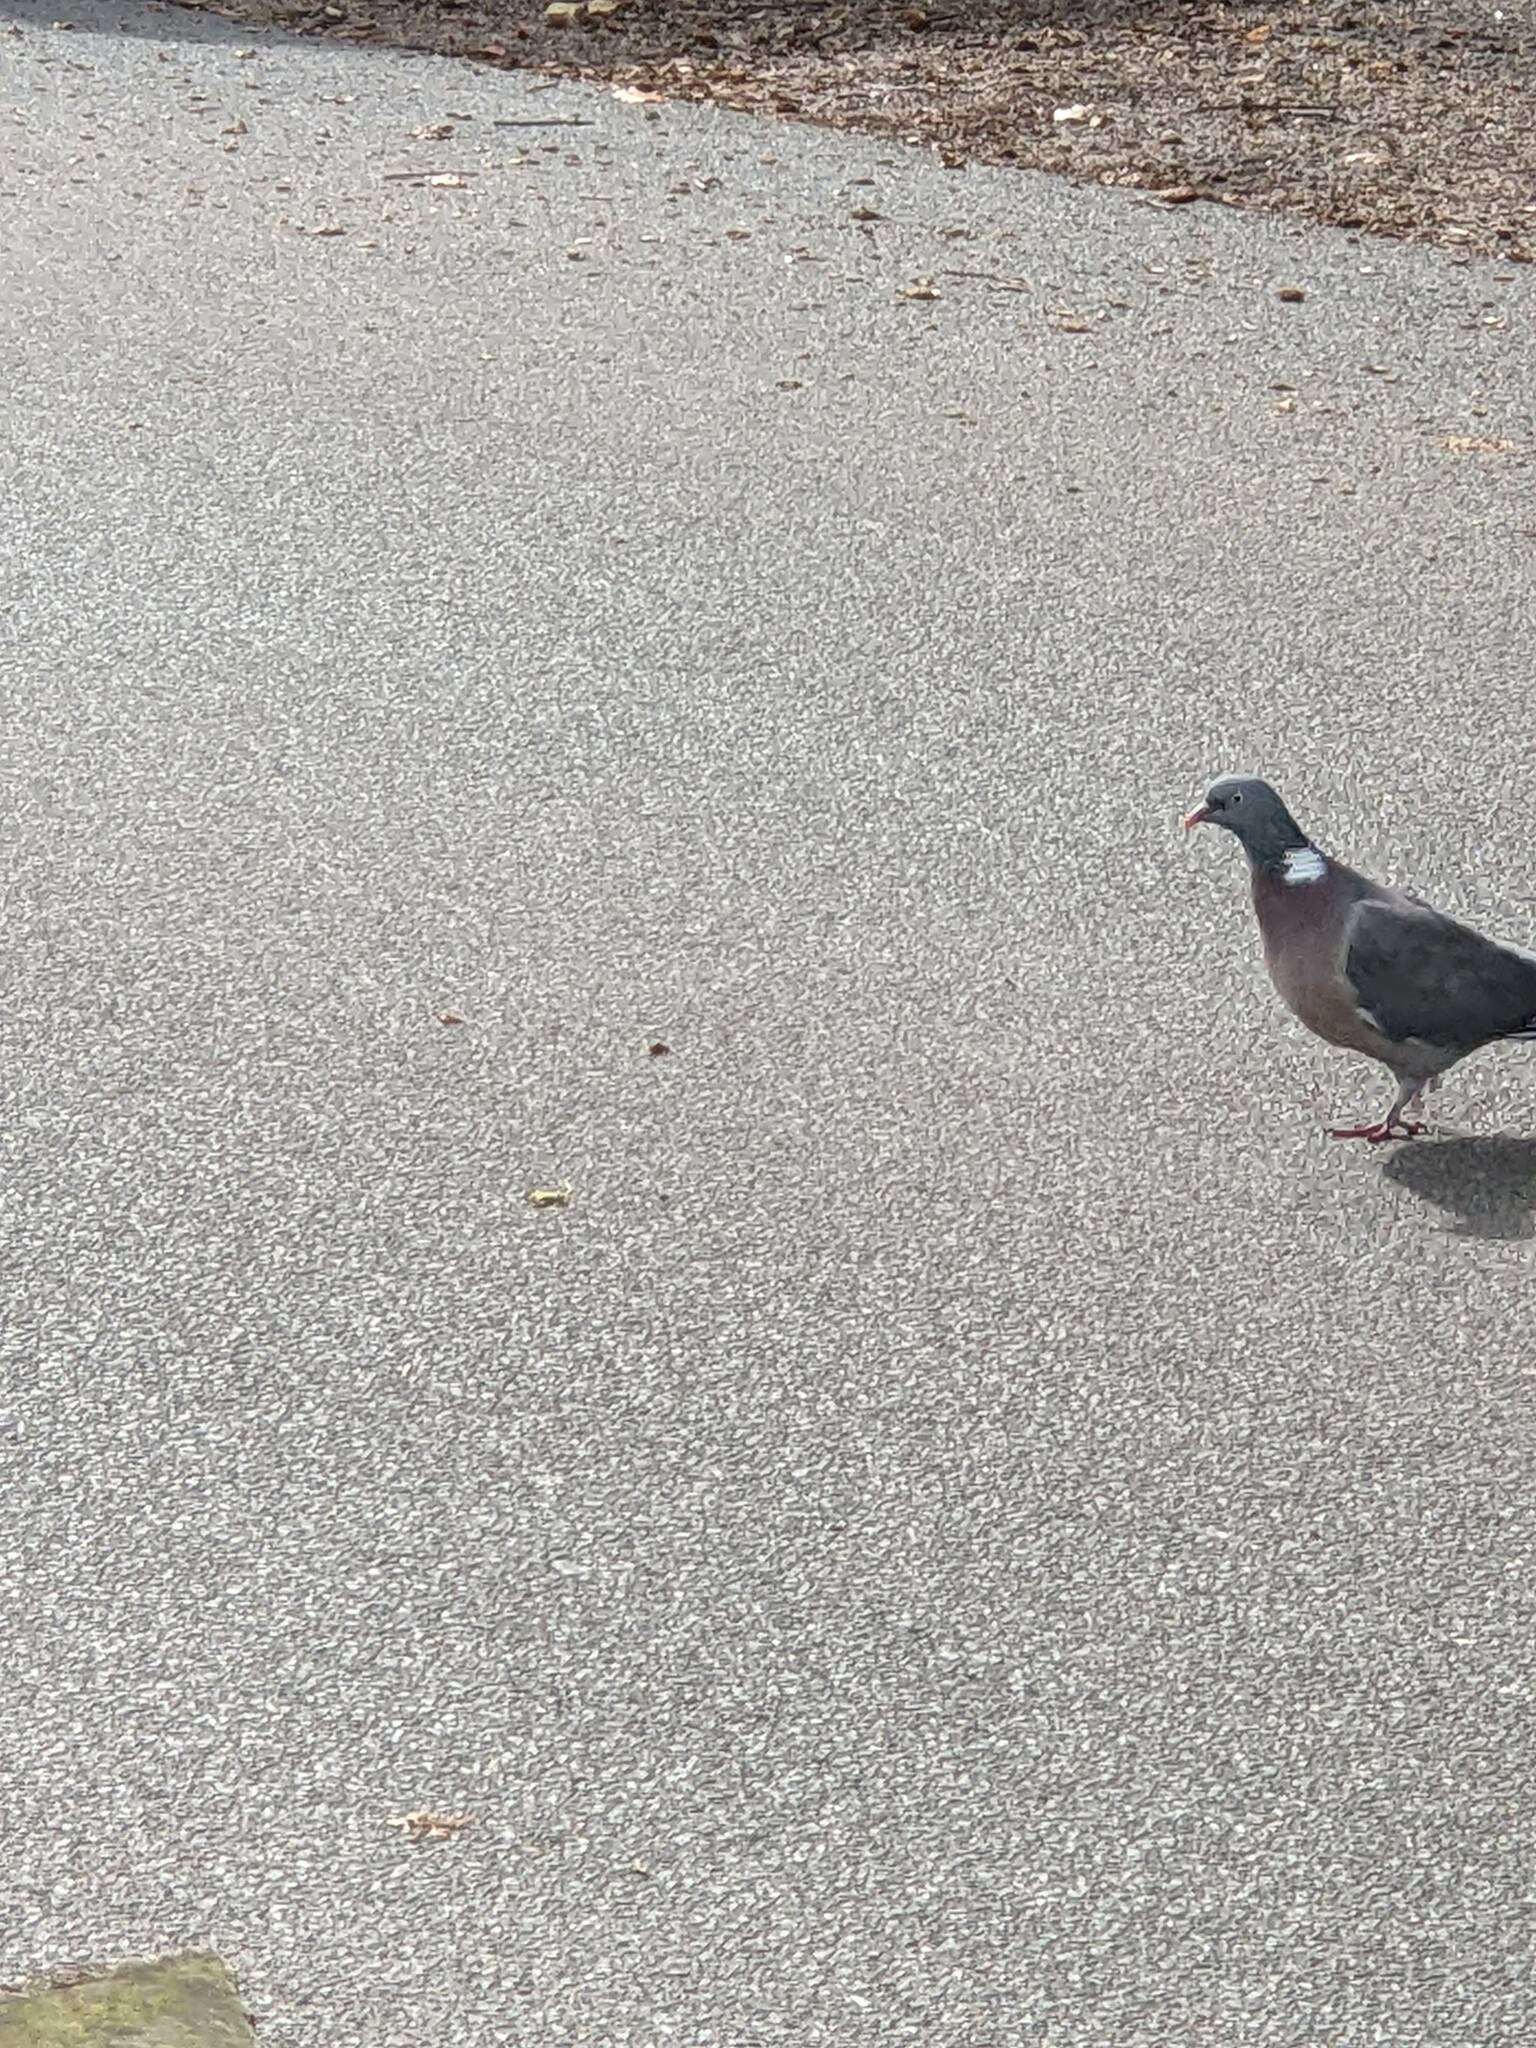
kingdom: Animalia
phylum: Chordata
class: Aves
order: Columbiformes
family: Columbidae
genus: Columba
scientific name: Columba palumbus
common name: Common wood pigeon
